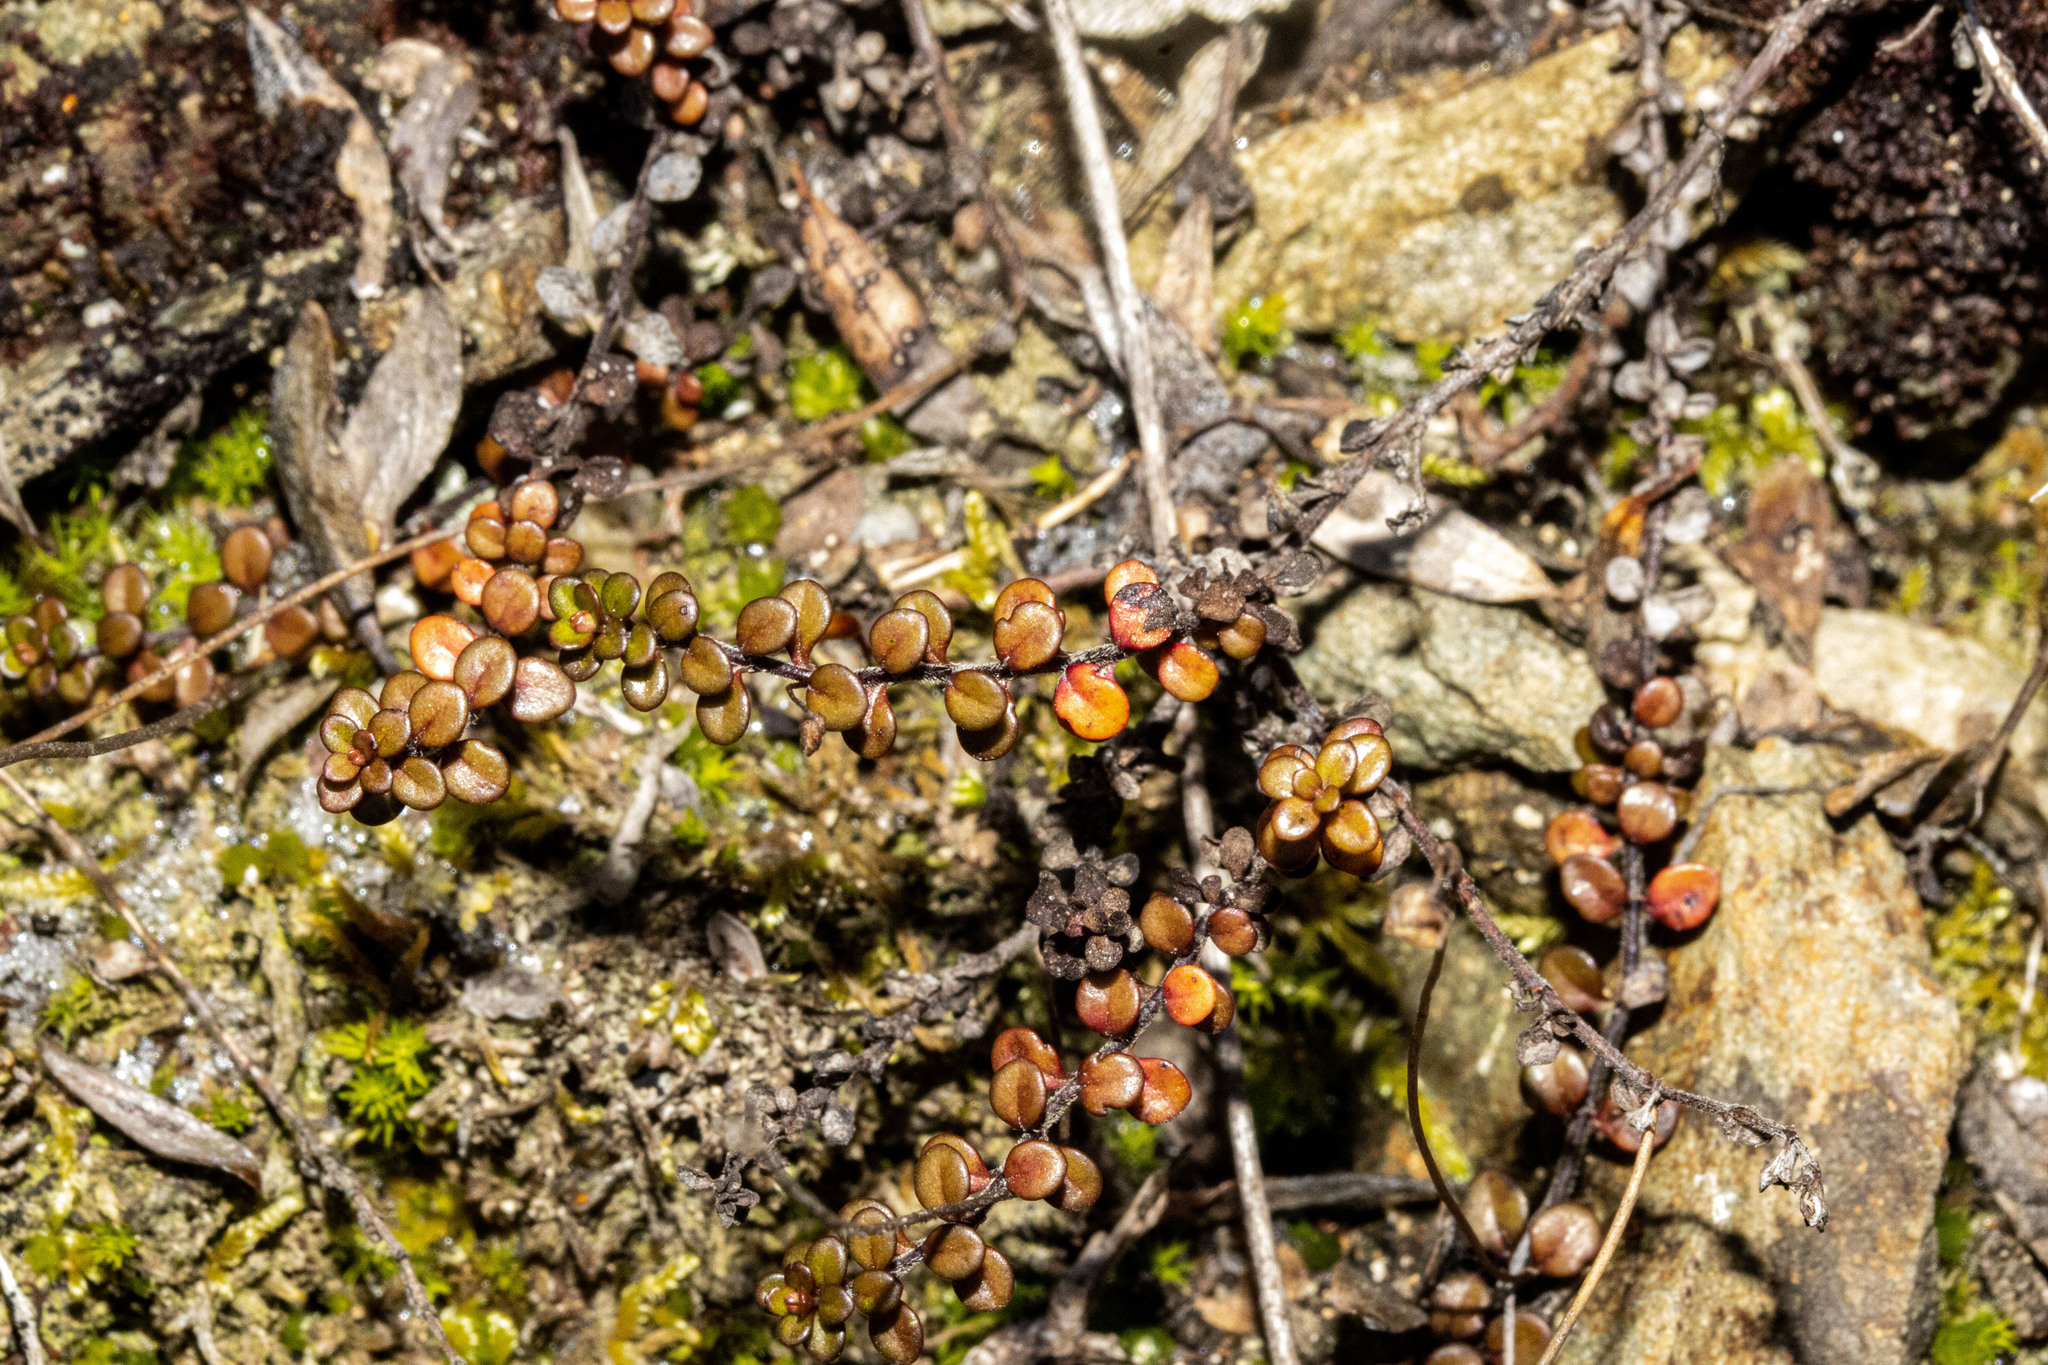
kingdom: Plantae
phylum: Tracheophyta
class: Magnoliopsida
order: Lamiales
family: Plantaginaceae
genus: Veronica
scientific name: Veronica decora
